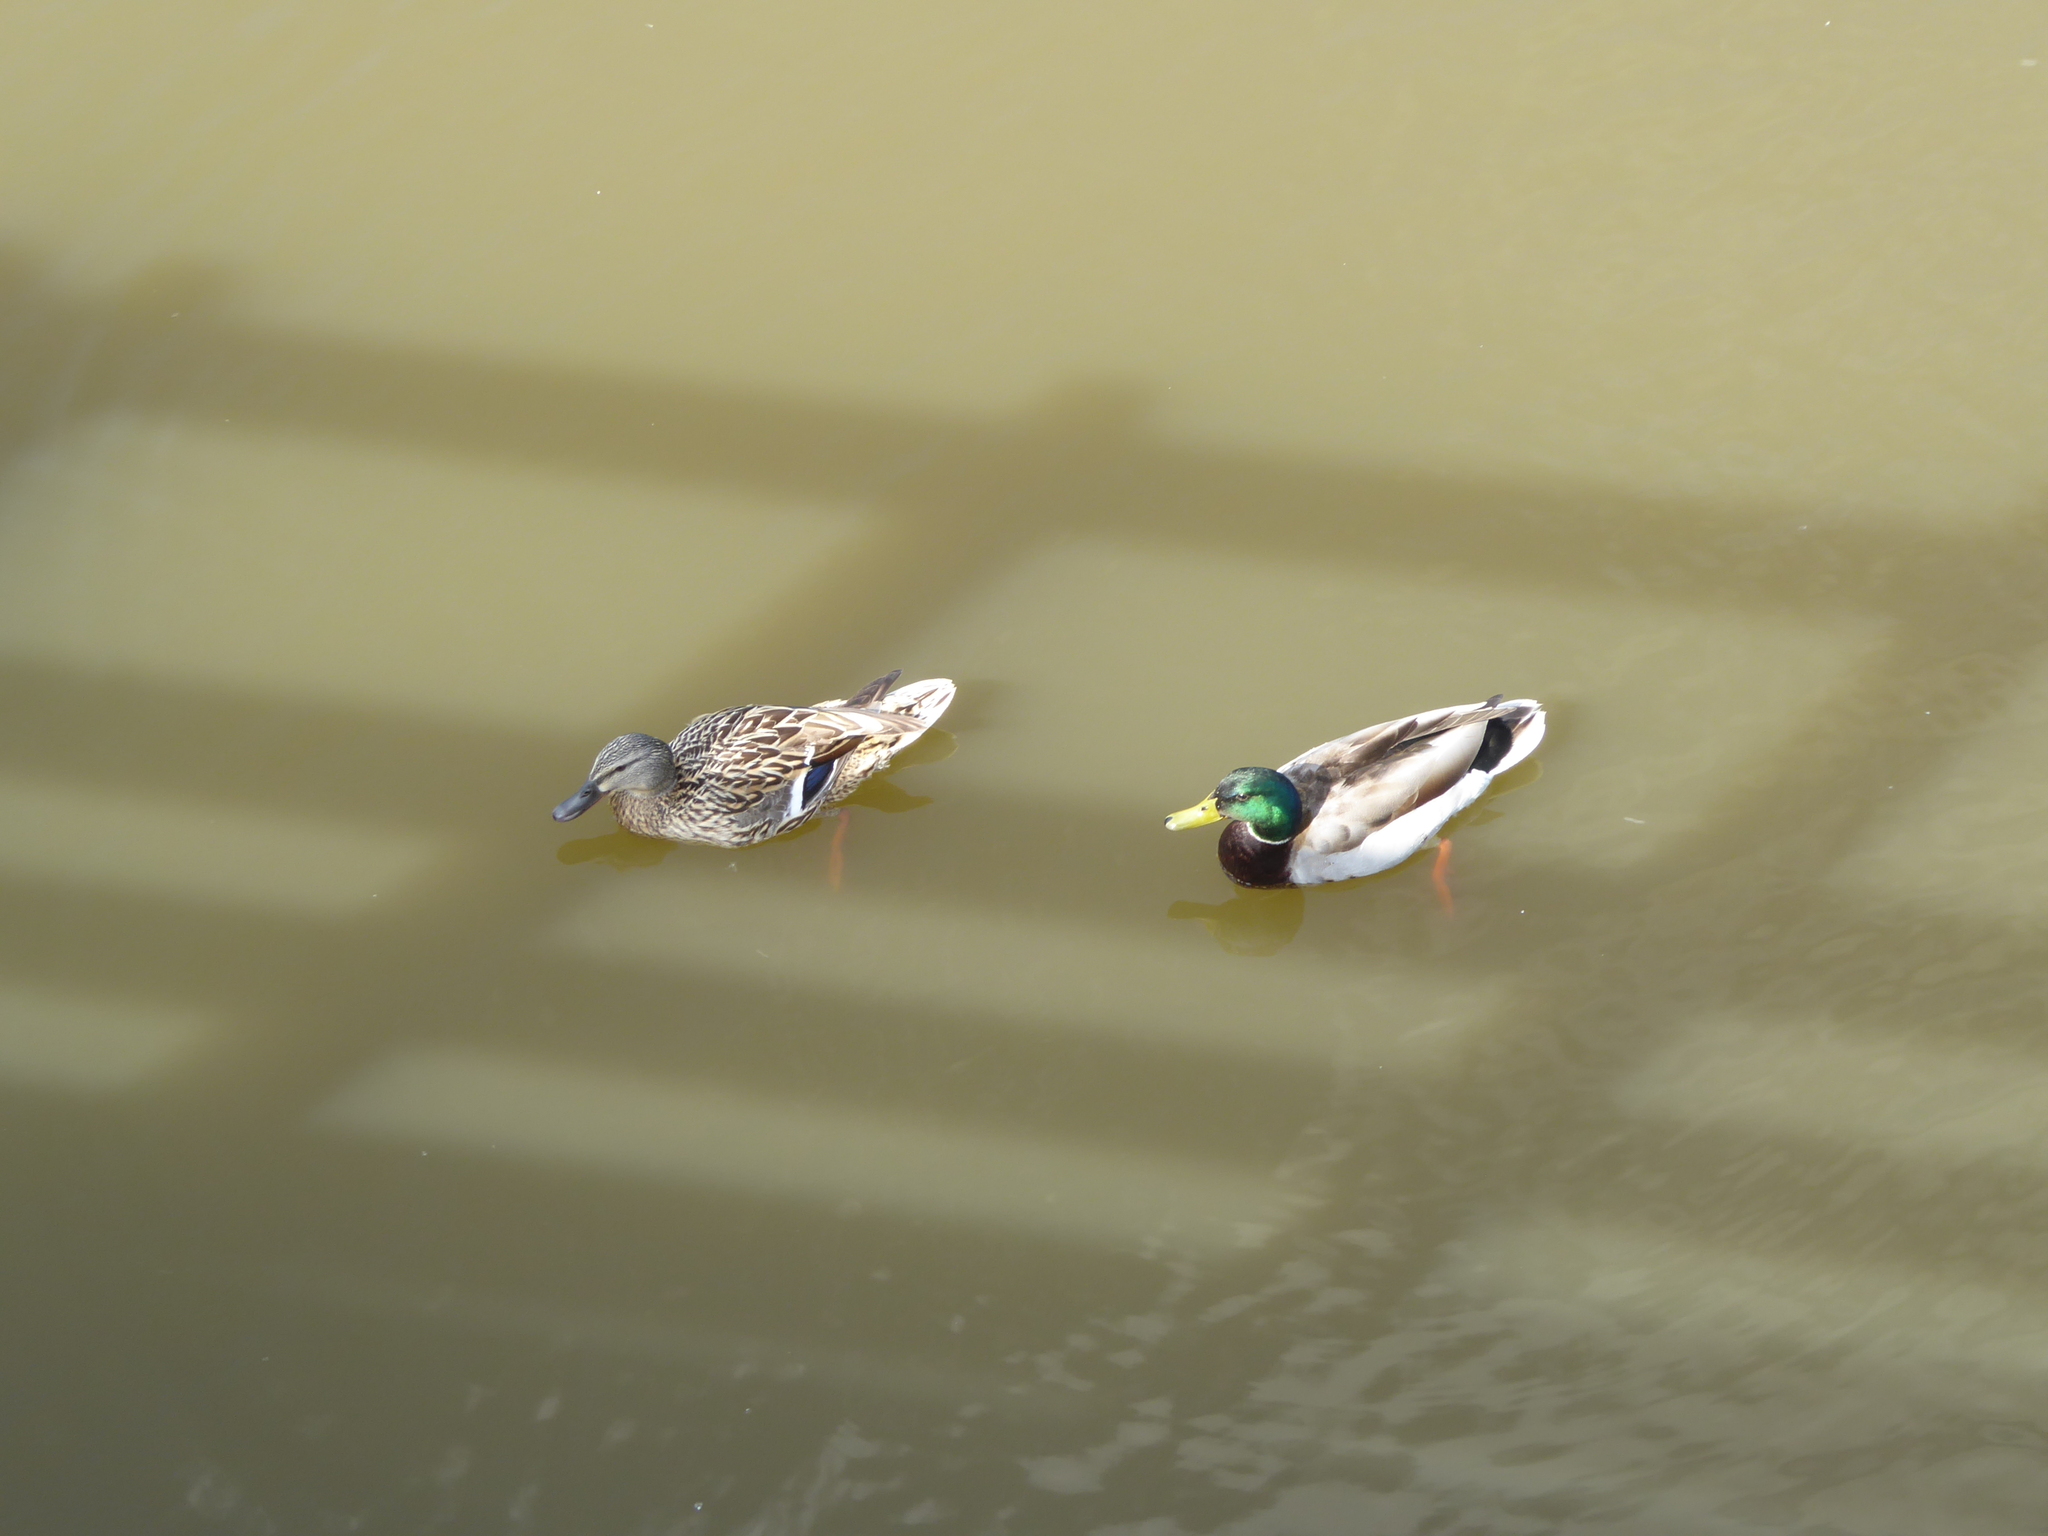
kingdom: Animalia
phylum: Chordata
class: Aves
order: Anseriformes
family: Anatidae
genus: Anas
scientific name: Anas platyrhynchos
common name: Mallard
